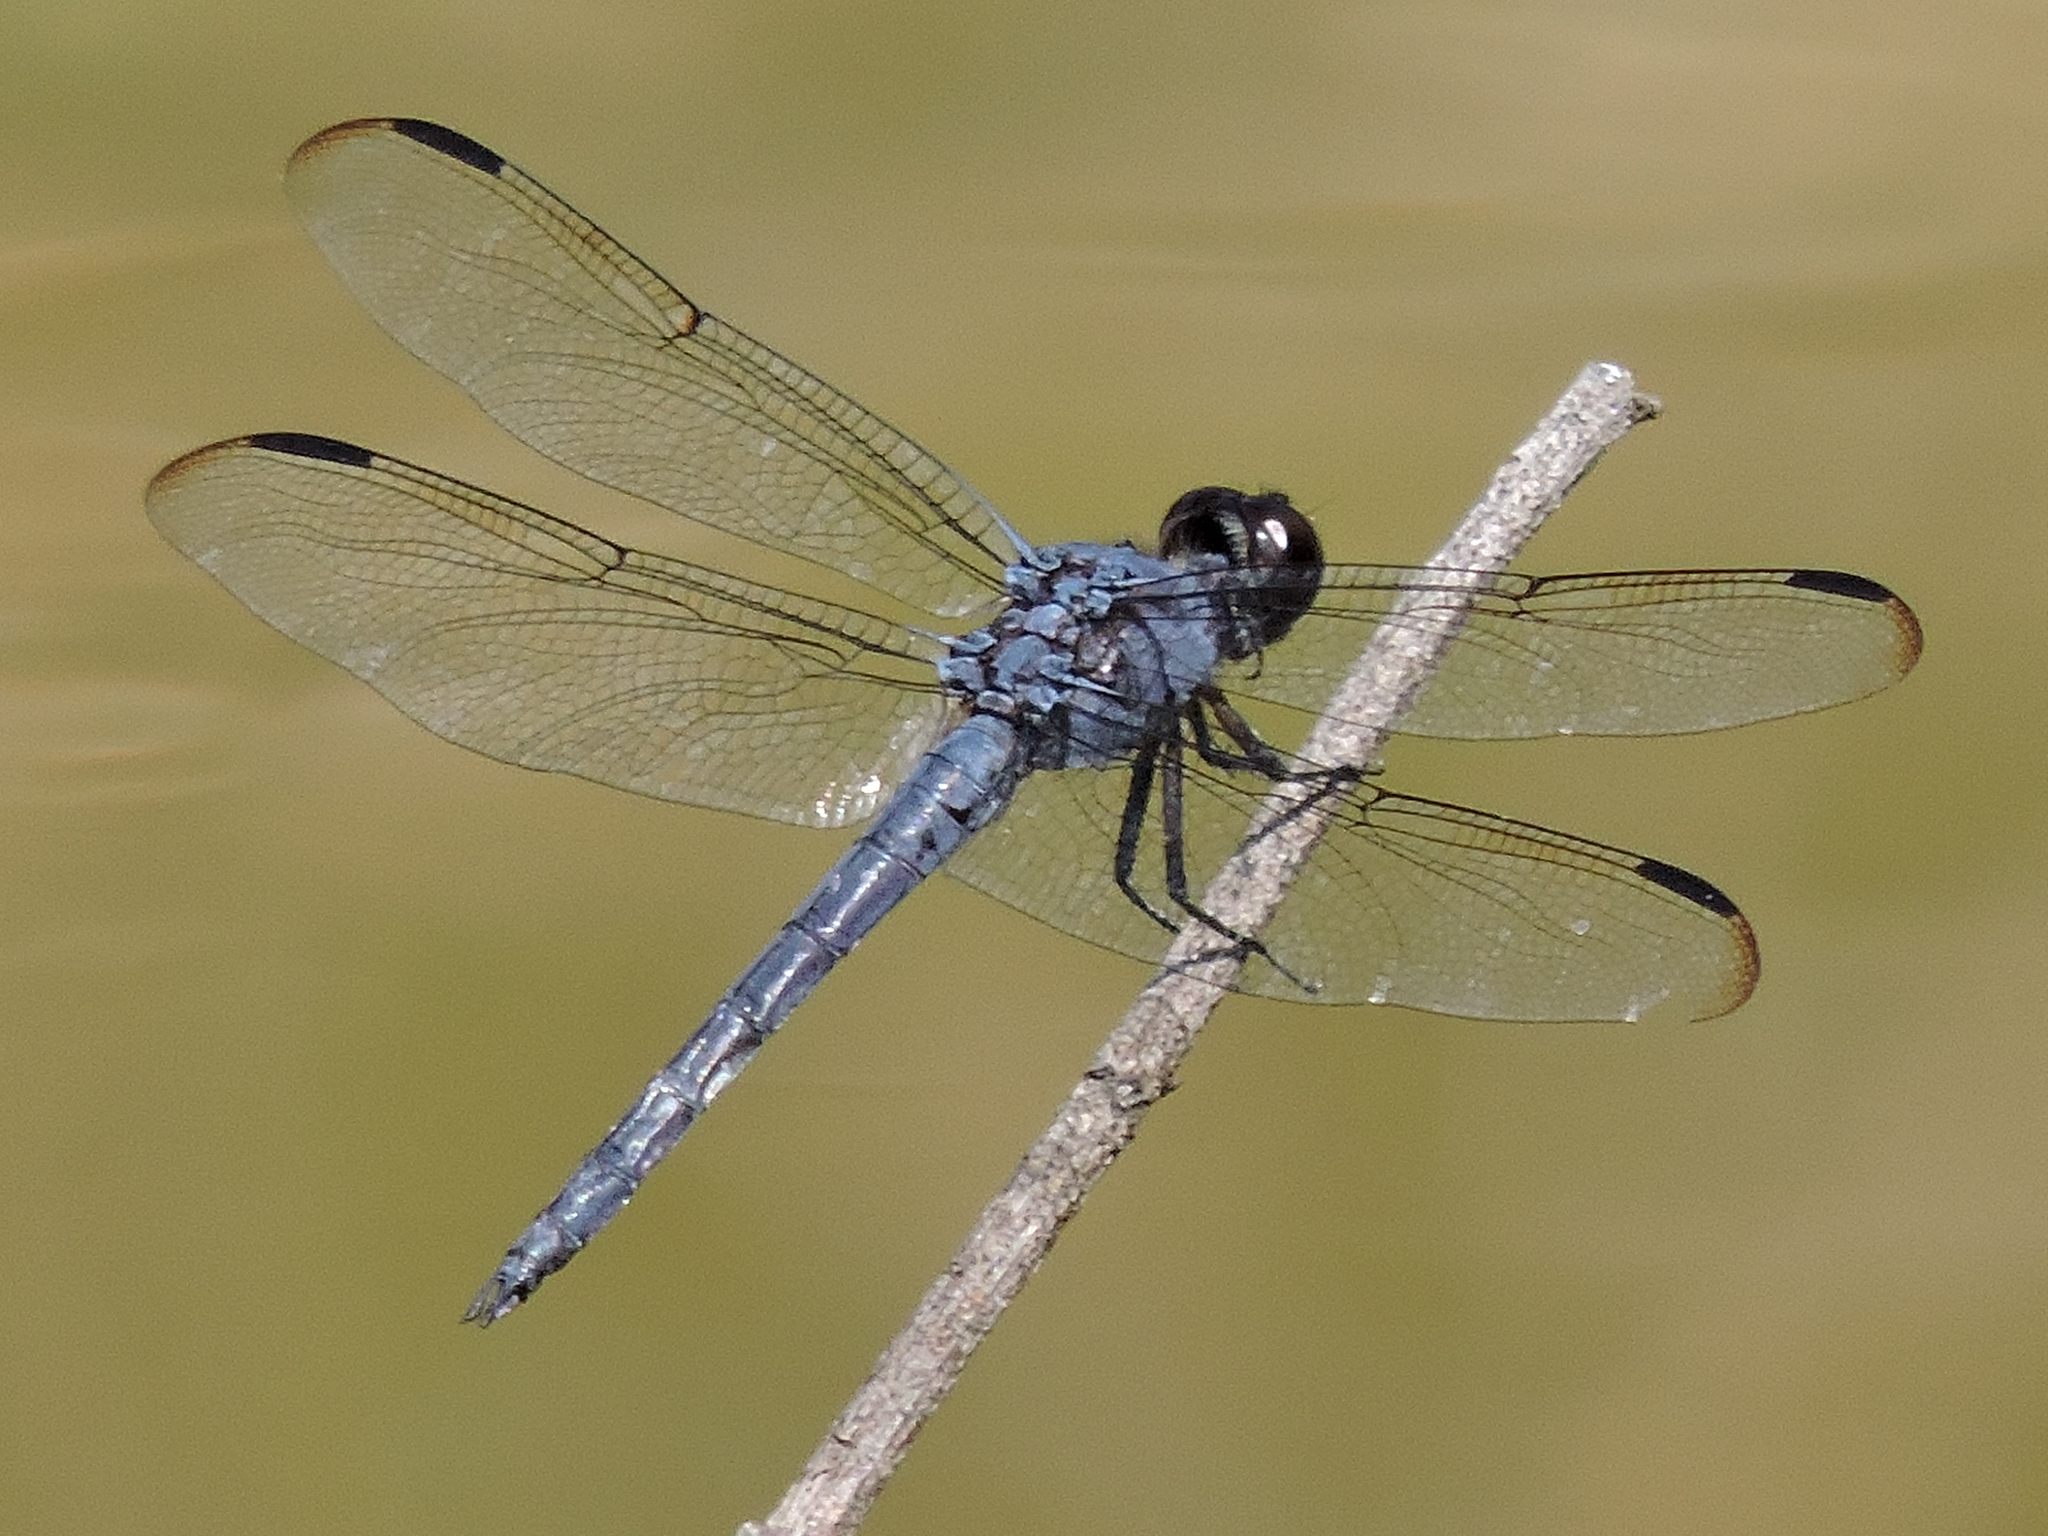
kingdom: Animalia
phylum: Arthropoda
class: Insecta
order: Odonata
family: Libellulidae
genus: Libellula
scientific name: Libellula incesta
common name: Slaty skimmer
